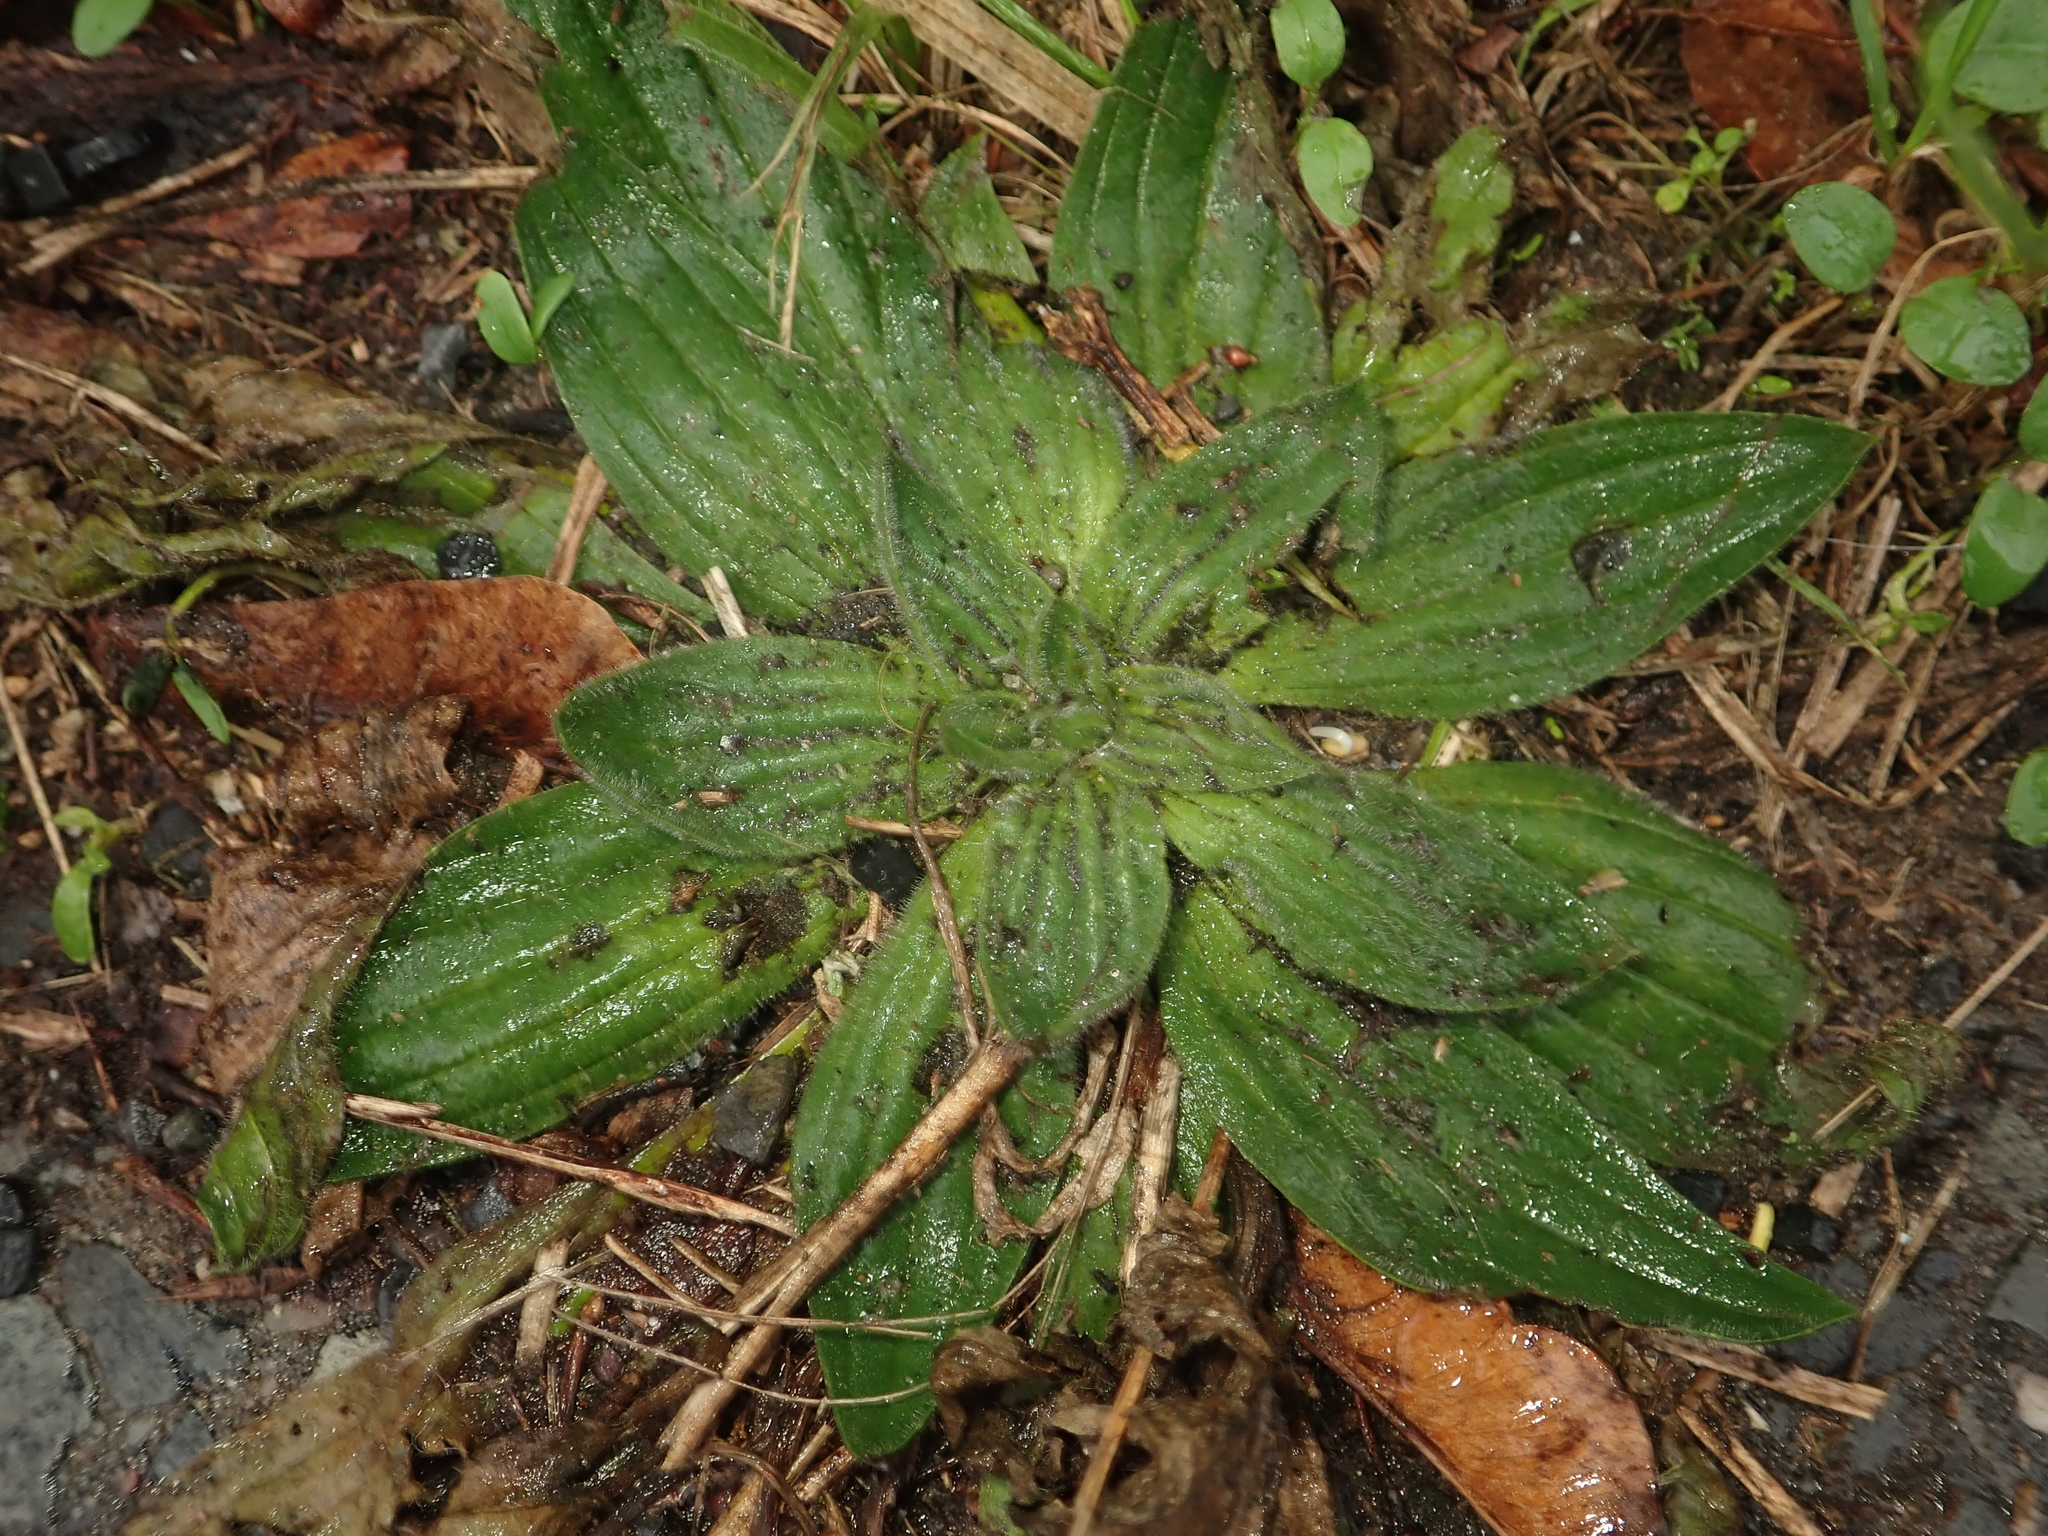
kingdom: Plantae
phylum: Tracheophyta
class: Magnoliopsida
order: Lamiales
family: Plantaginaceae
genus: Plantago
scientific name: Plantago lanceolata
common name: Ribwort plantain
